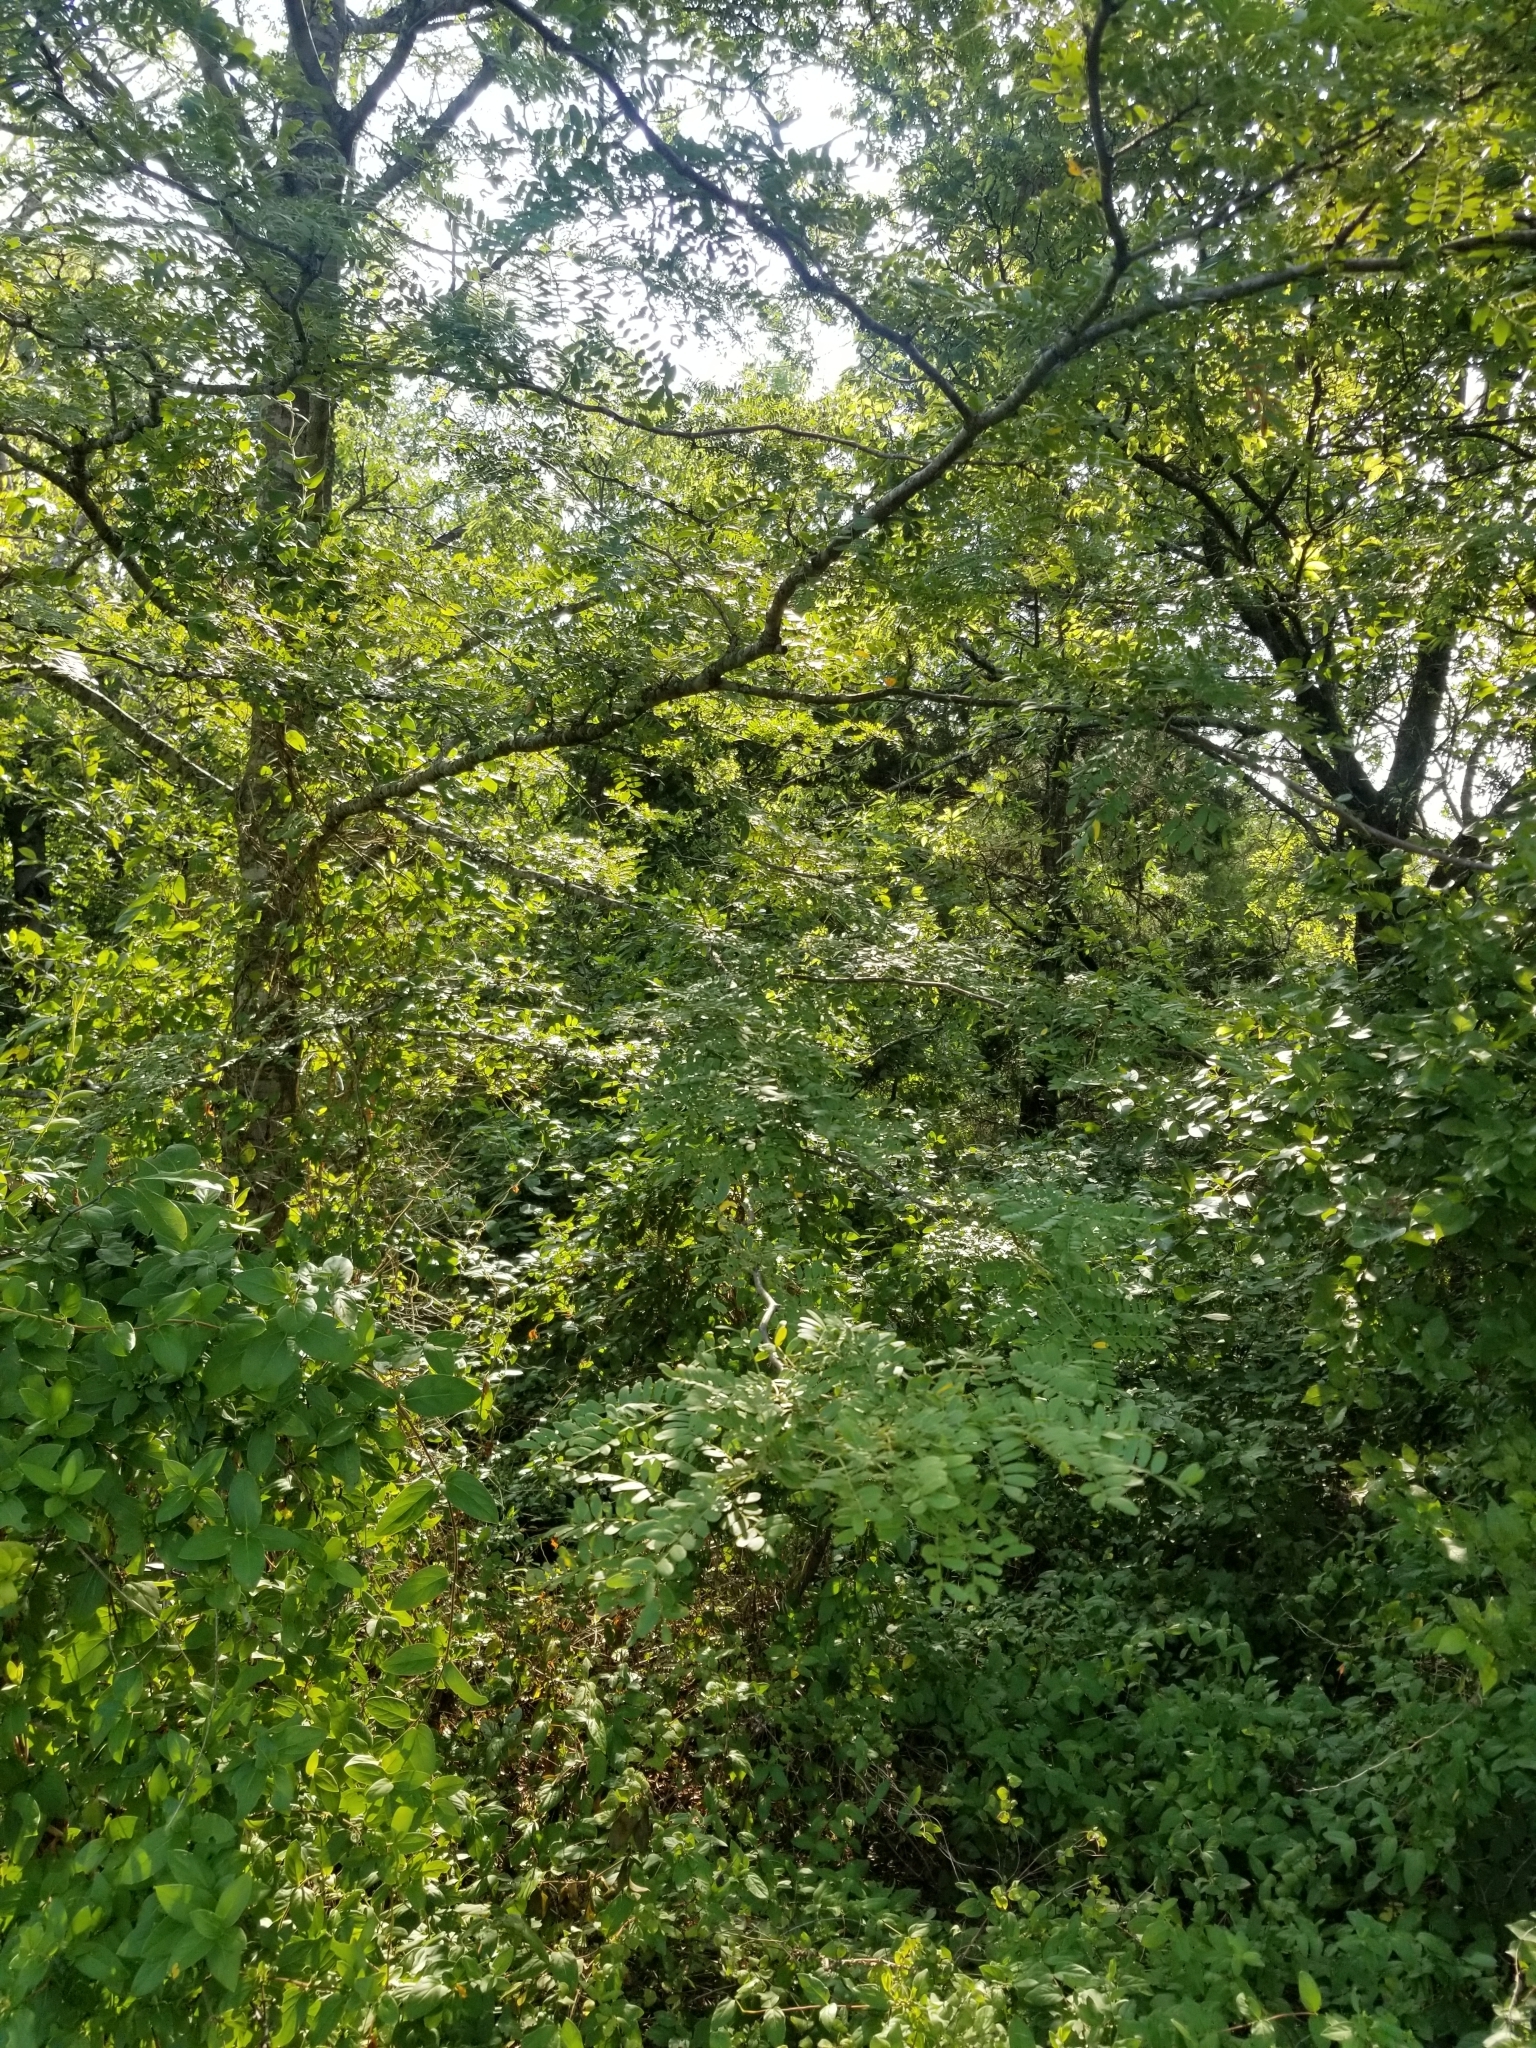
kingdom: Plantae
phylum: Tracheophyta
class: Magnoliopsida
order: Fabales
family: Fabaceae
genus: Gleditsia
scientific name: Gleditsia triacanthos
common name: Common honeylocust
